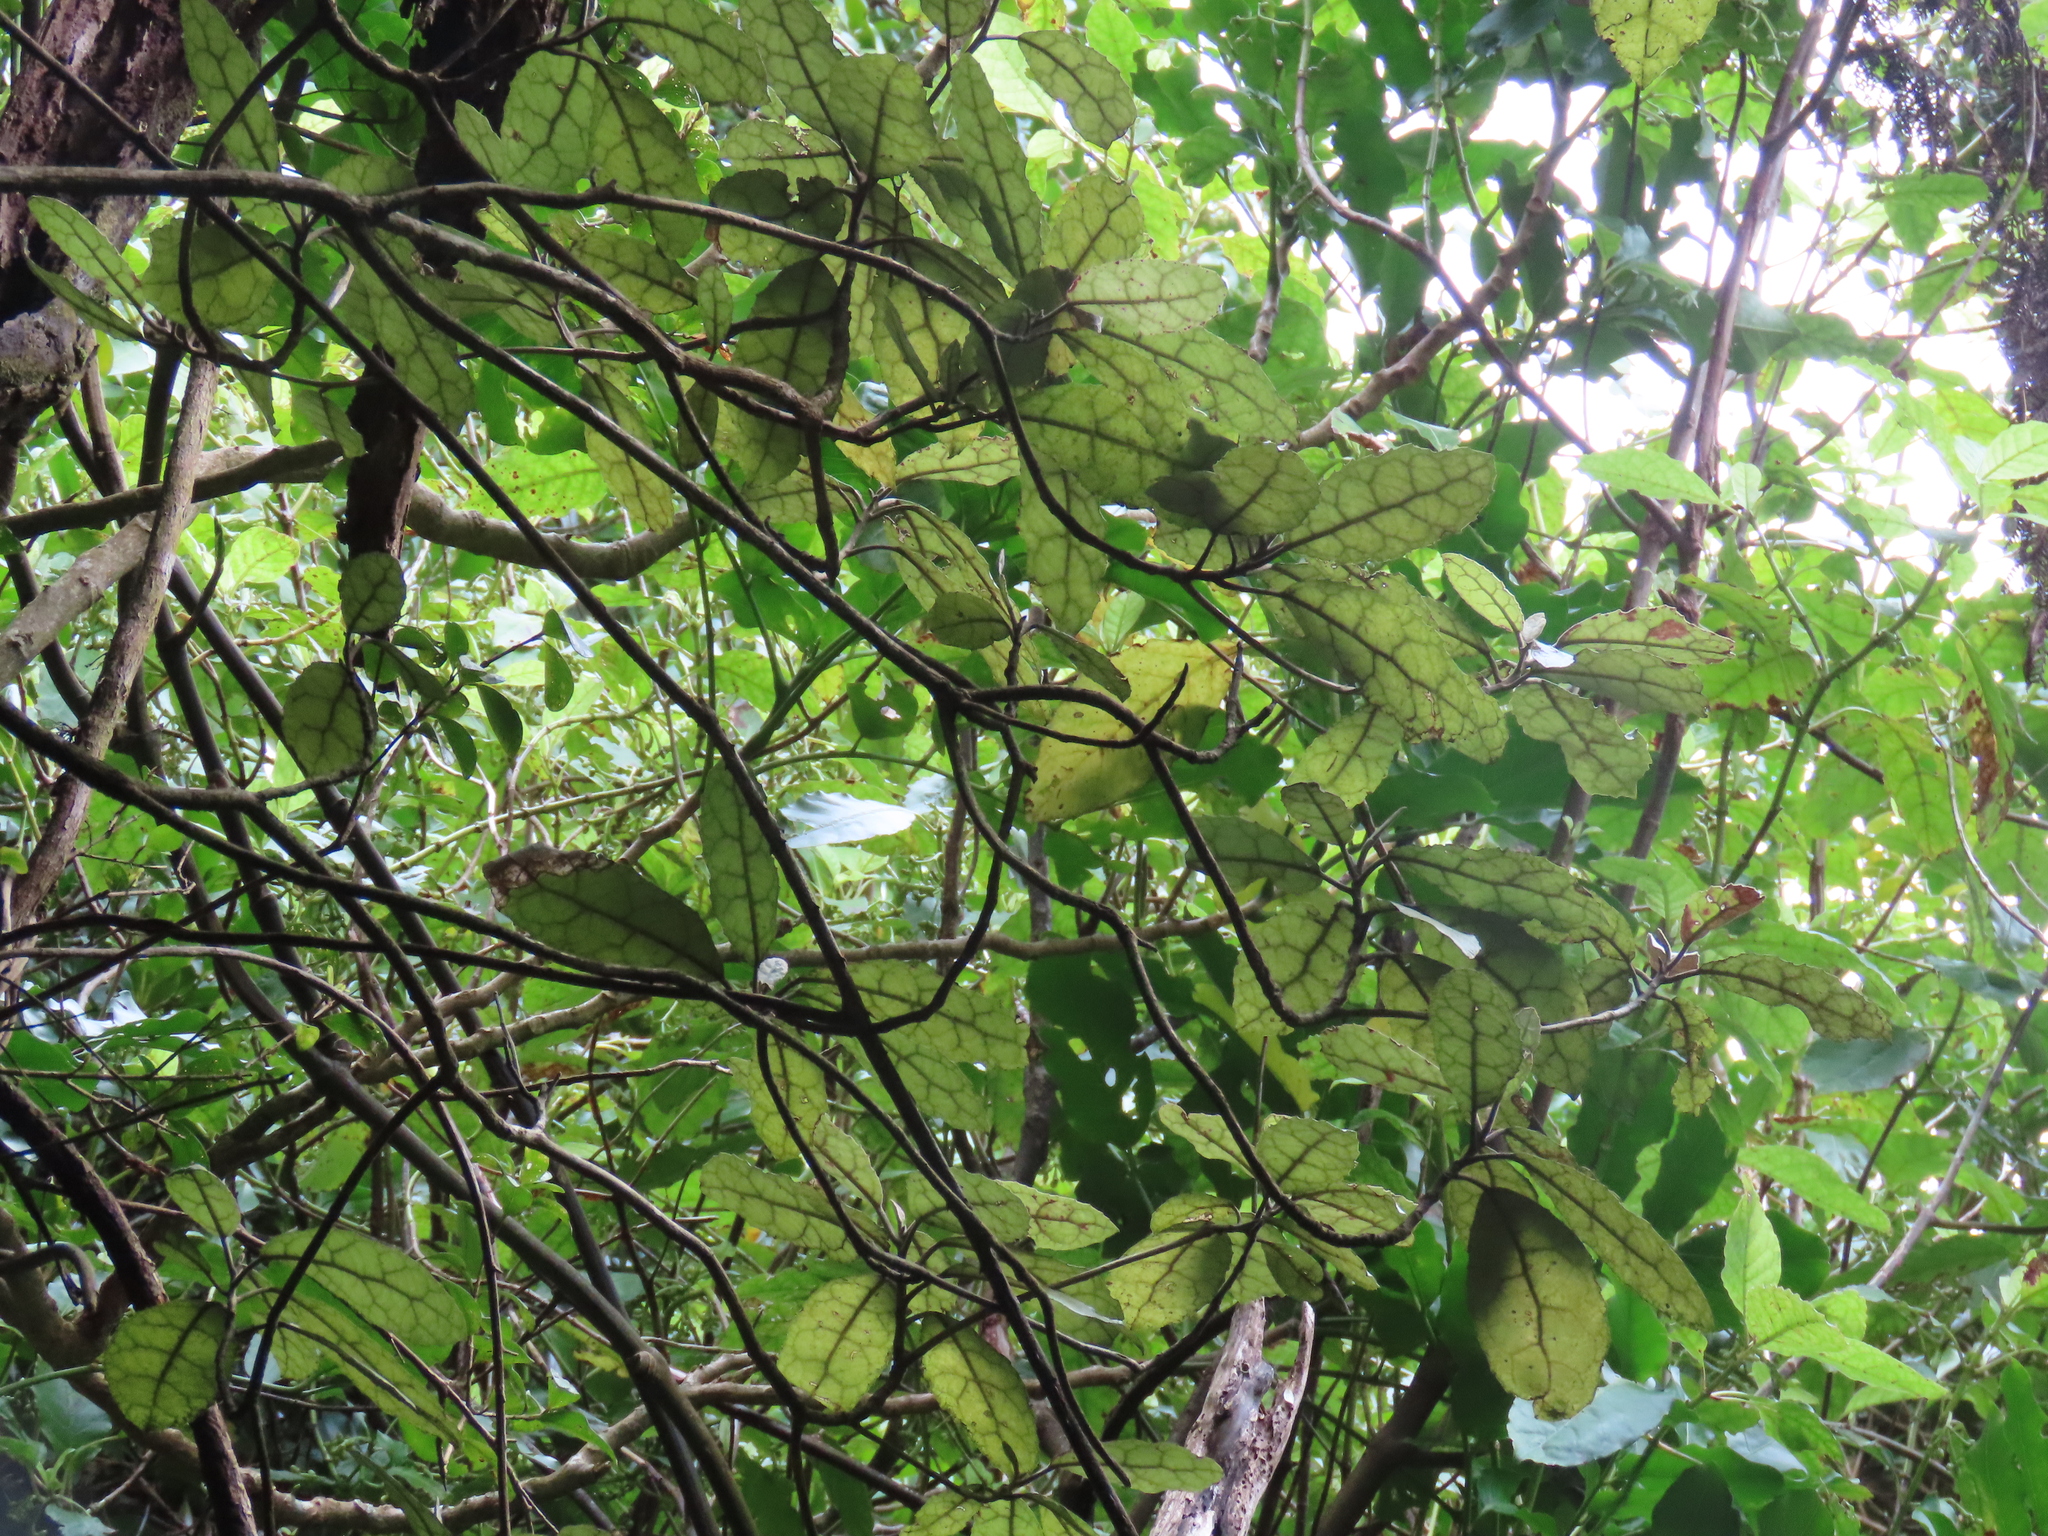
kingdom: Plantae
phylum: Tracheophyta
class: Magnoliopsida
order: Asterales
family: Asteraceae
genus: Olearia
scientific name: Olearia rani
